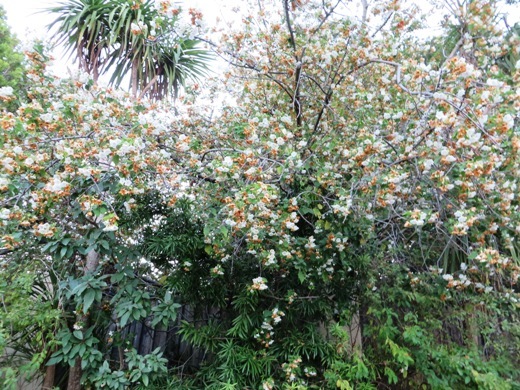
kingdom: Plantae
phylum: Tracheophyta
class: Magnoliopsida
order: Malvales
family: Malvaceae
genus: Dombeya
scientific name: Dombeya burgessiae
